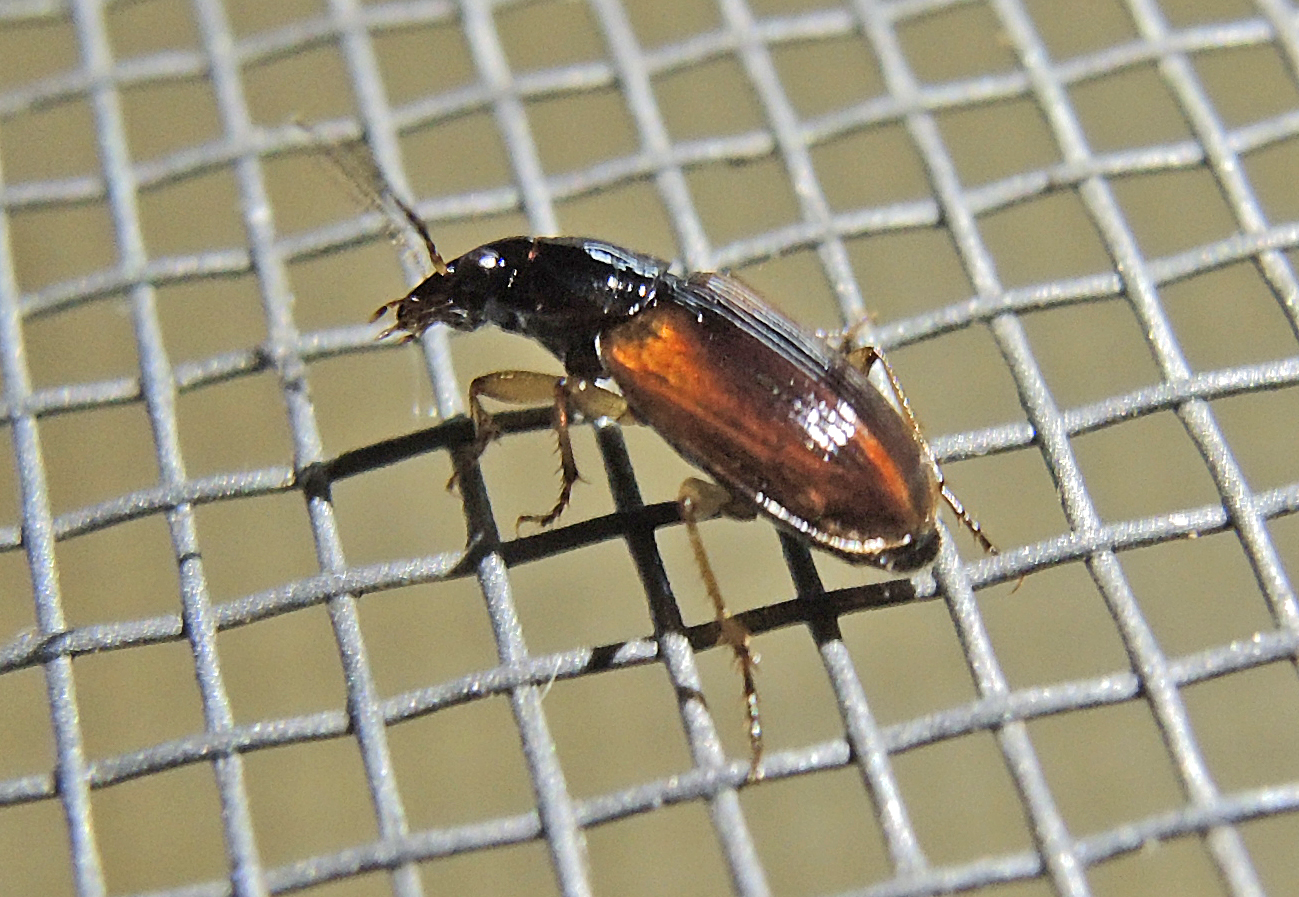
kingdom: Animalia
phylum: Arthropoda
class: Insecta
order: Coleoptera
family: Carabidae
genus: Stenolophus
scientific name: Stenolophus mixtus
